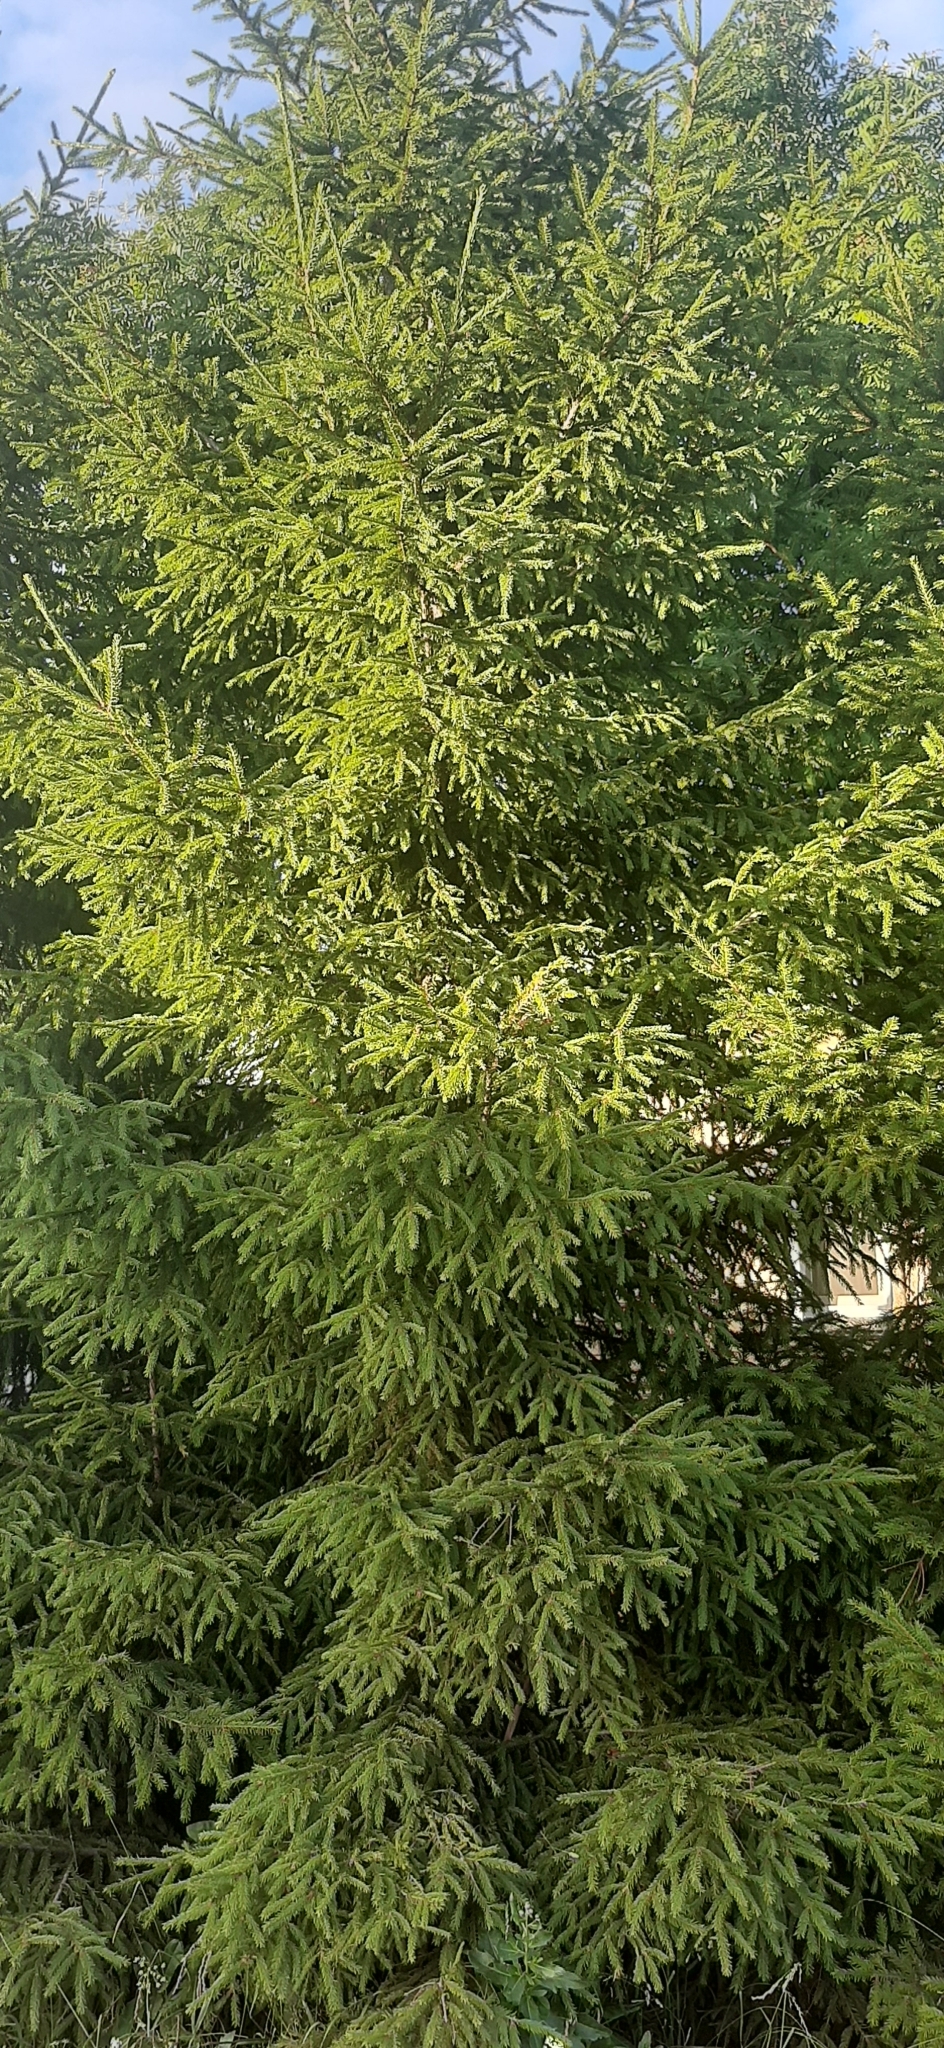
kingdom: Plantae
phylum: Tracheophyta
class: Pinopsida
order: Pinales
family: Pinaceae
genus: Picea
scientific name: Picea
